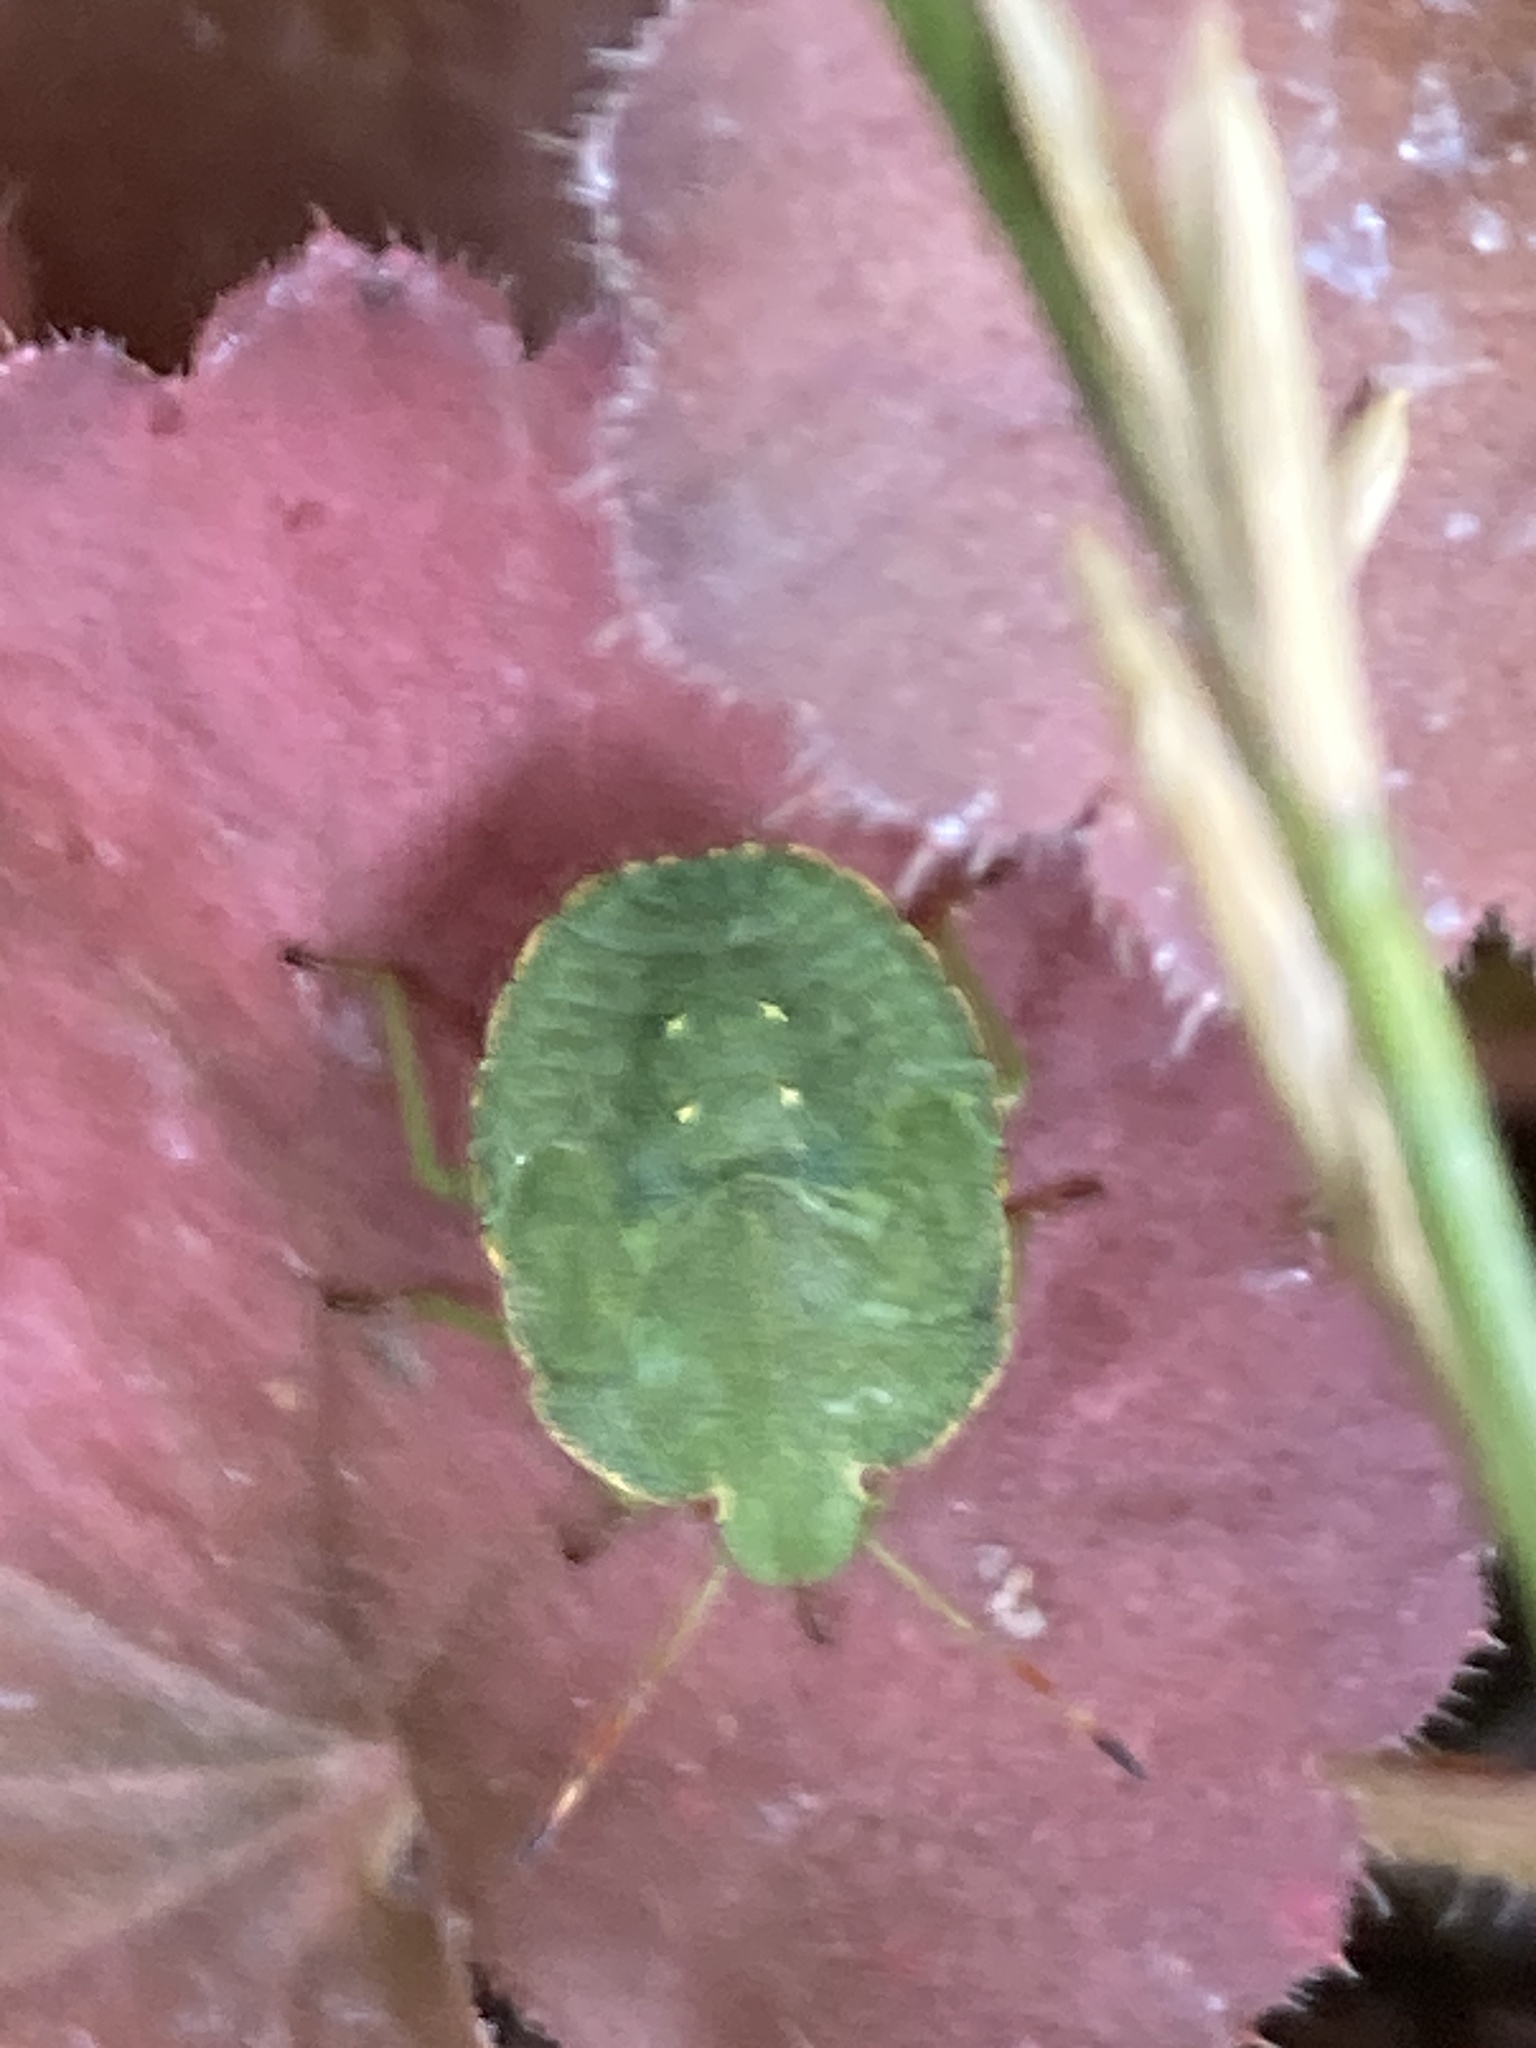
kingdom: Animalia
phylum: Arthropoda
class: Insecta
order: Hemiptera
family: Pentatomidae
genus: Palomena
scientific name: Palomena prasina
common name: Green shieldbug
